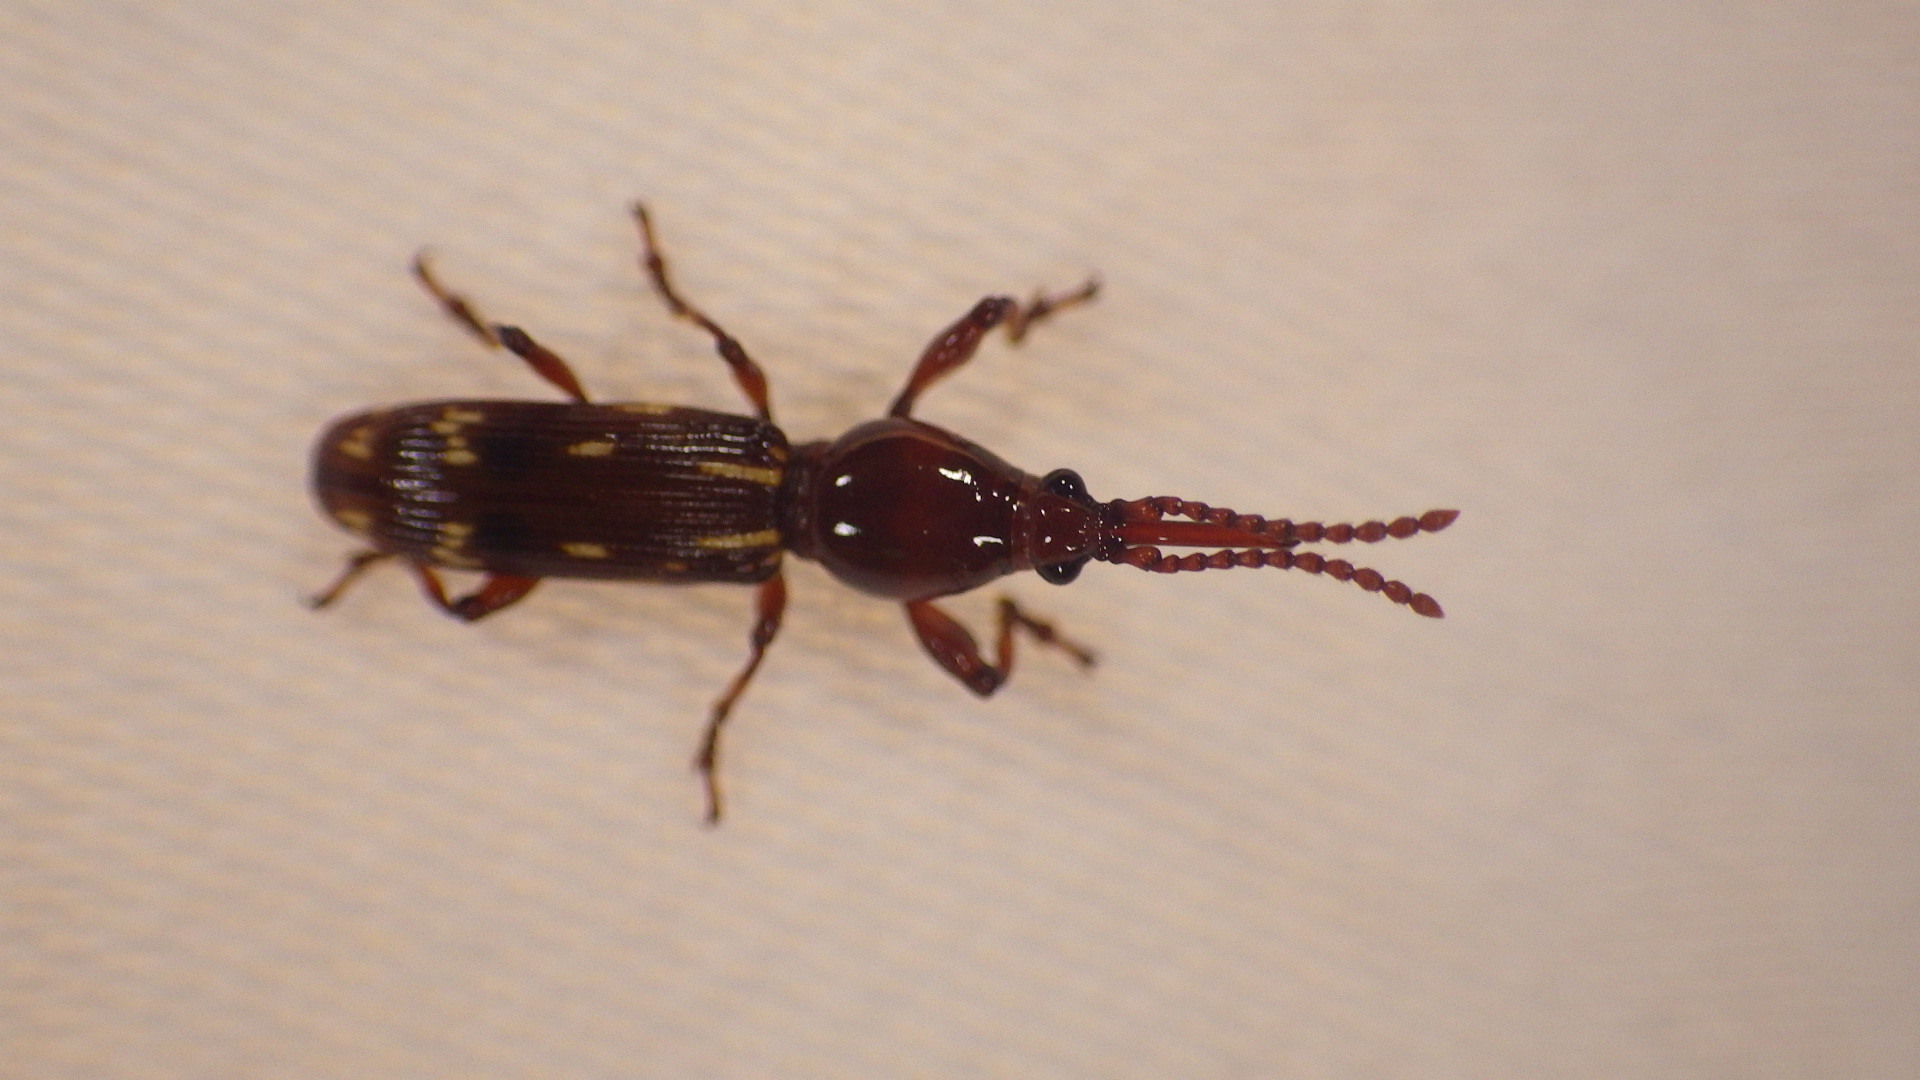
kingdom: Animalia
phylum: Arthropoda
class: Insecta
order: Coleoptera
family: Brentidae
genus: Arrenodes
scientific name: Arrenodes minutus
